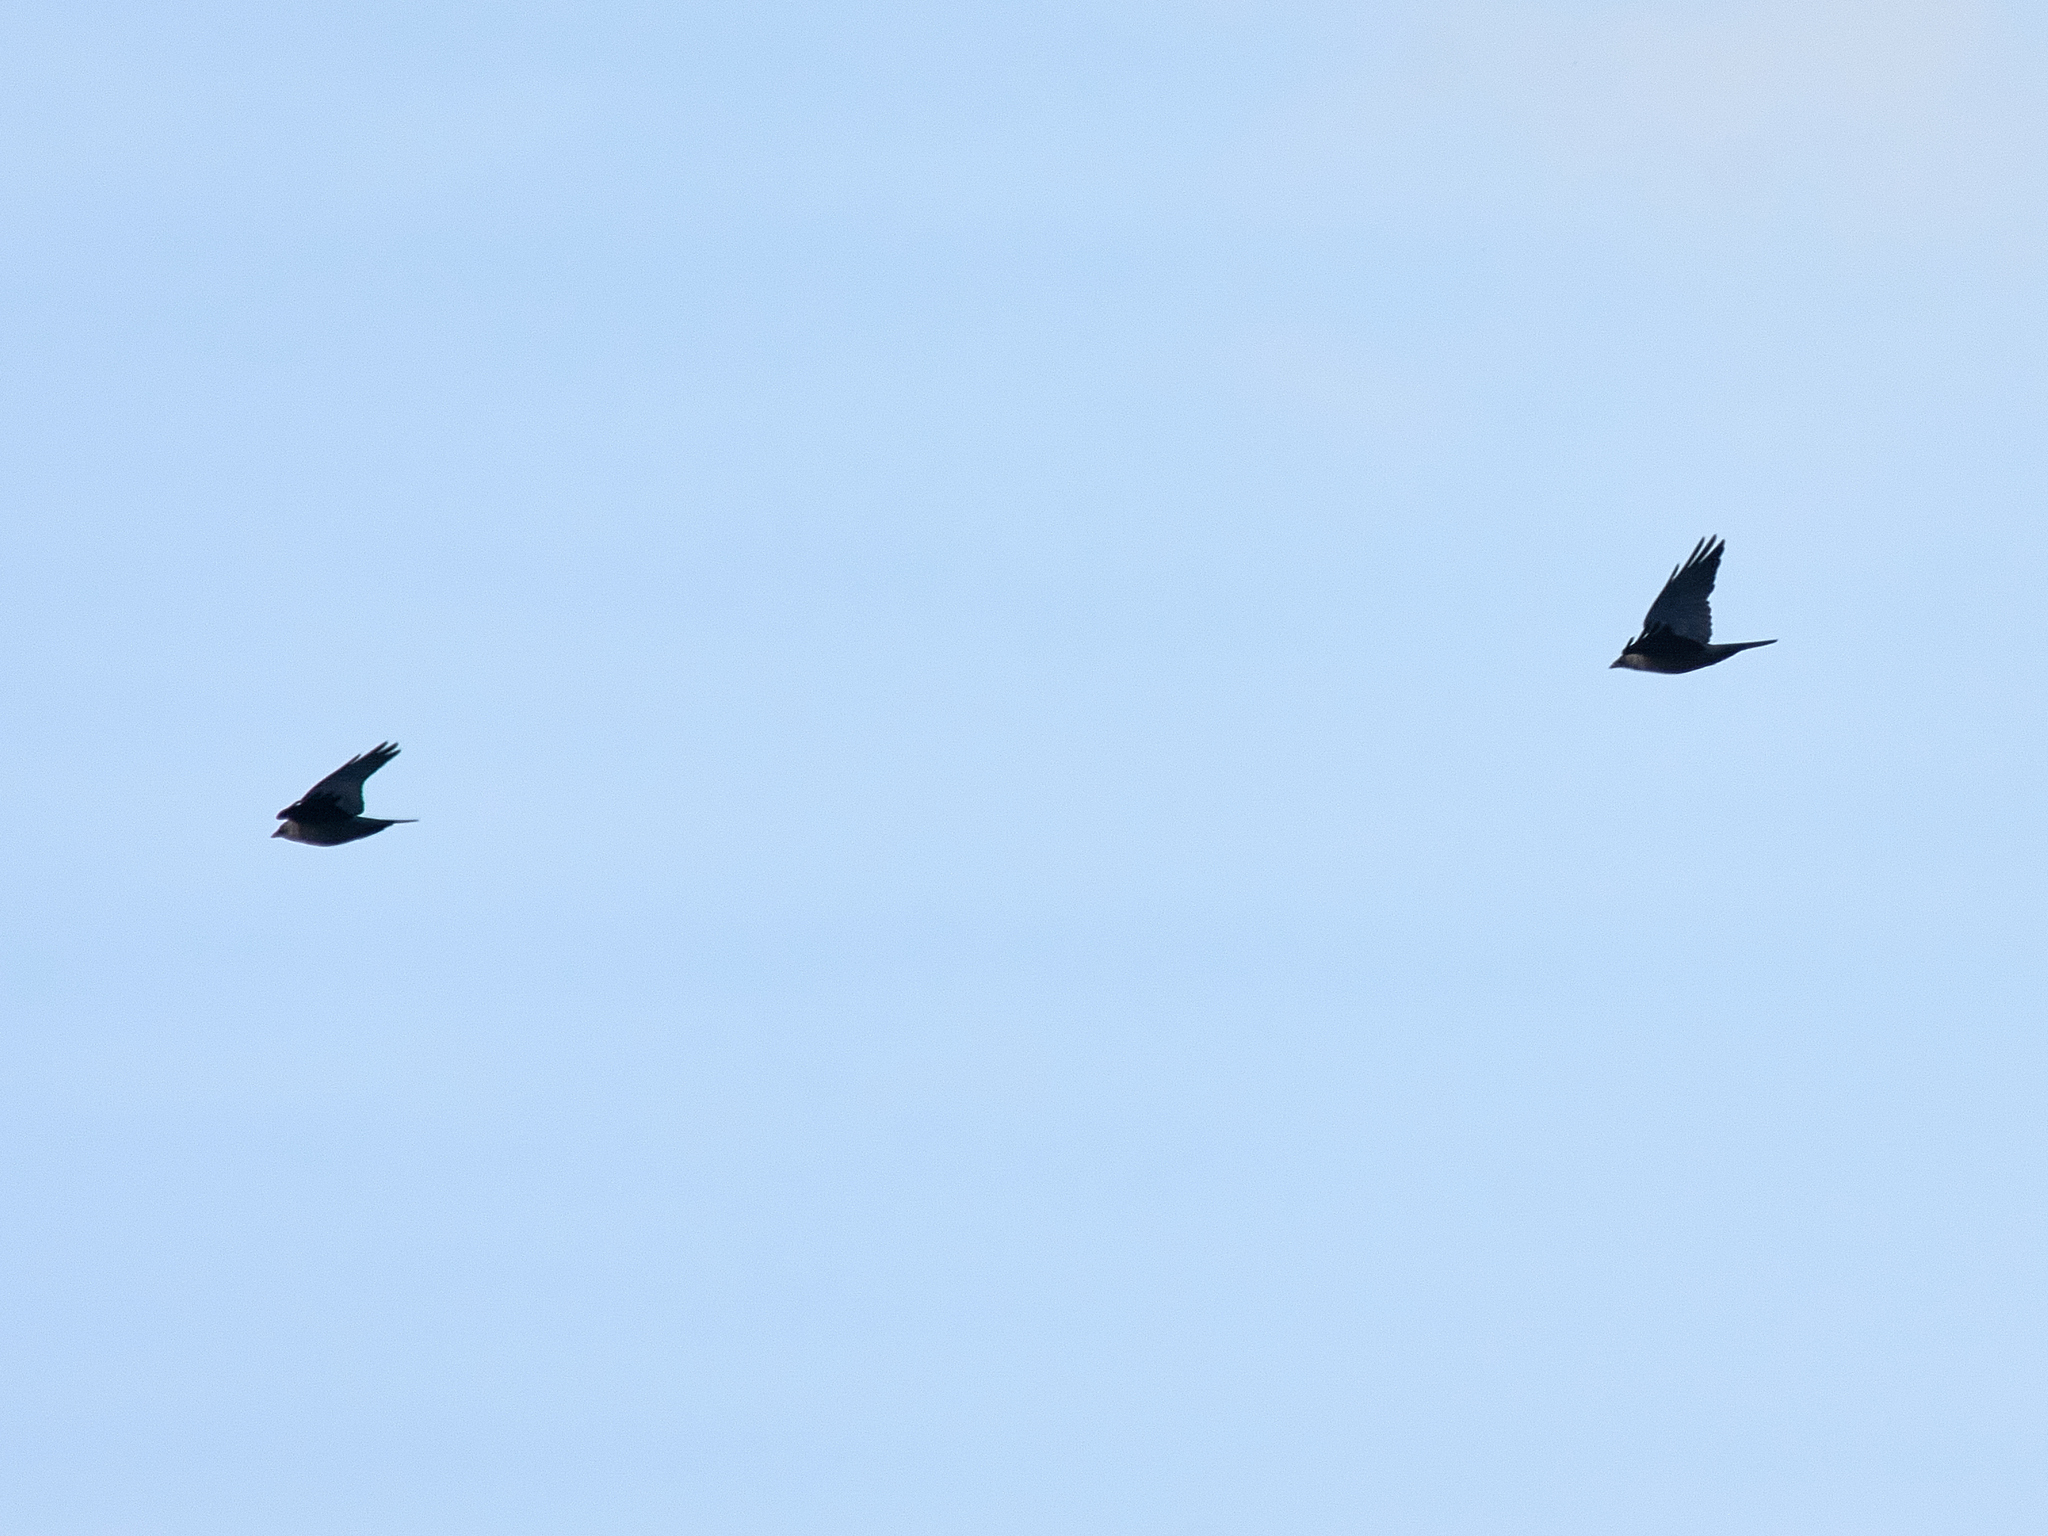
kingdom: Animalia
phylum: Chordata
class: Aves
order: Passeriformes
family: Corvidae
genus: Coloeus
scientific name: Coloeus monedula
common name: Western jackdaw
